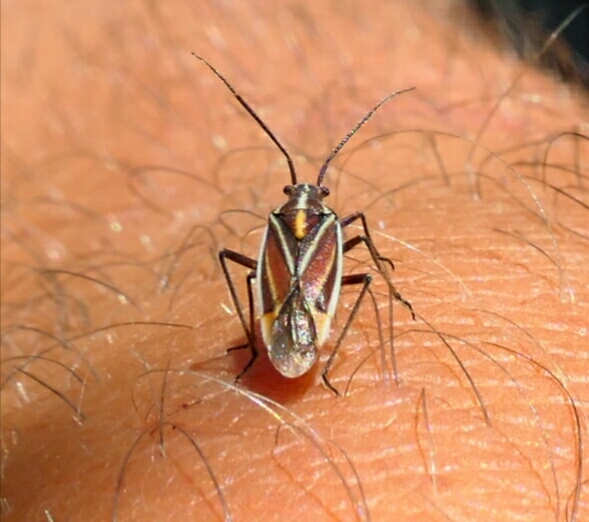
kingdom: Animalia
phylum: Arthropoda
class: Insecta
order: Hemiptera
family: Miridae
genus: Horistus
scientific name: Horistus orientalis
